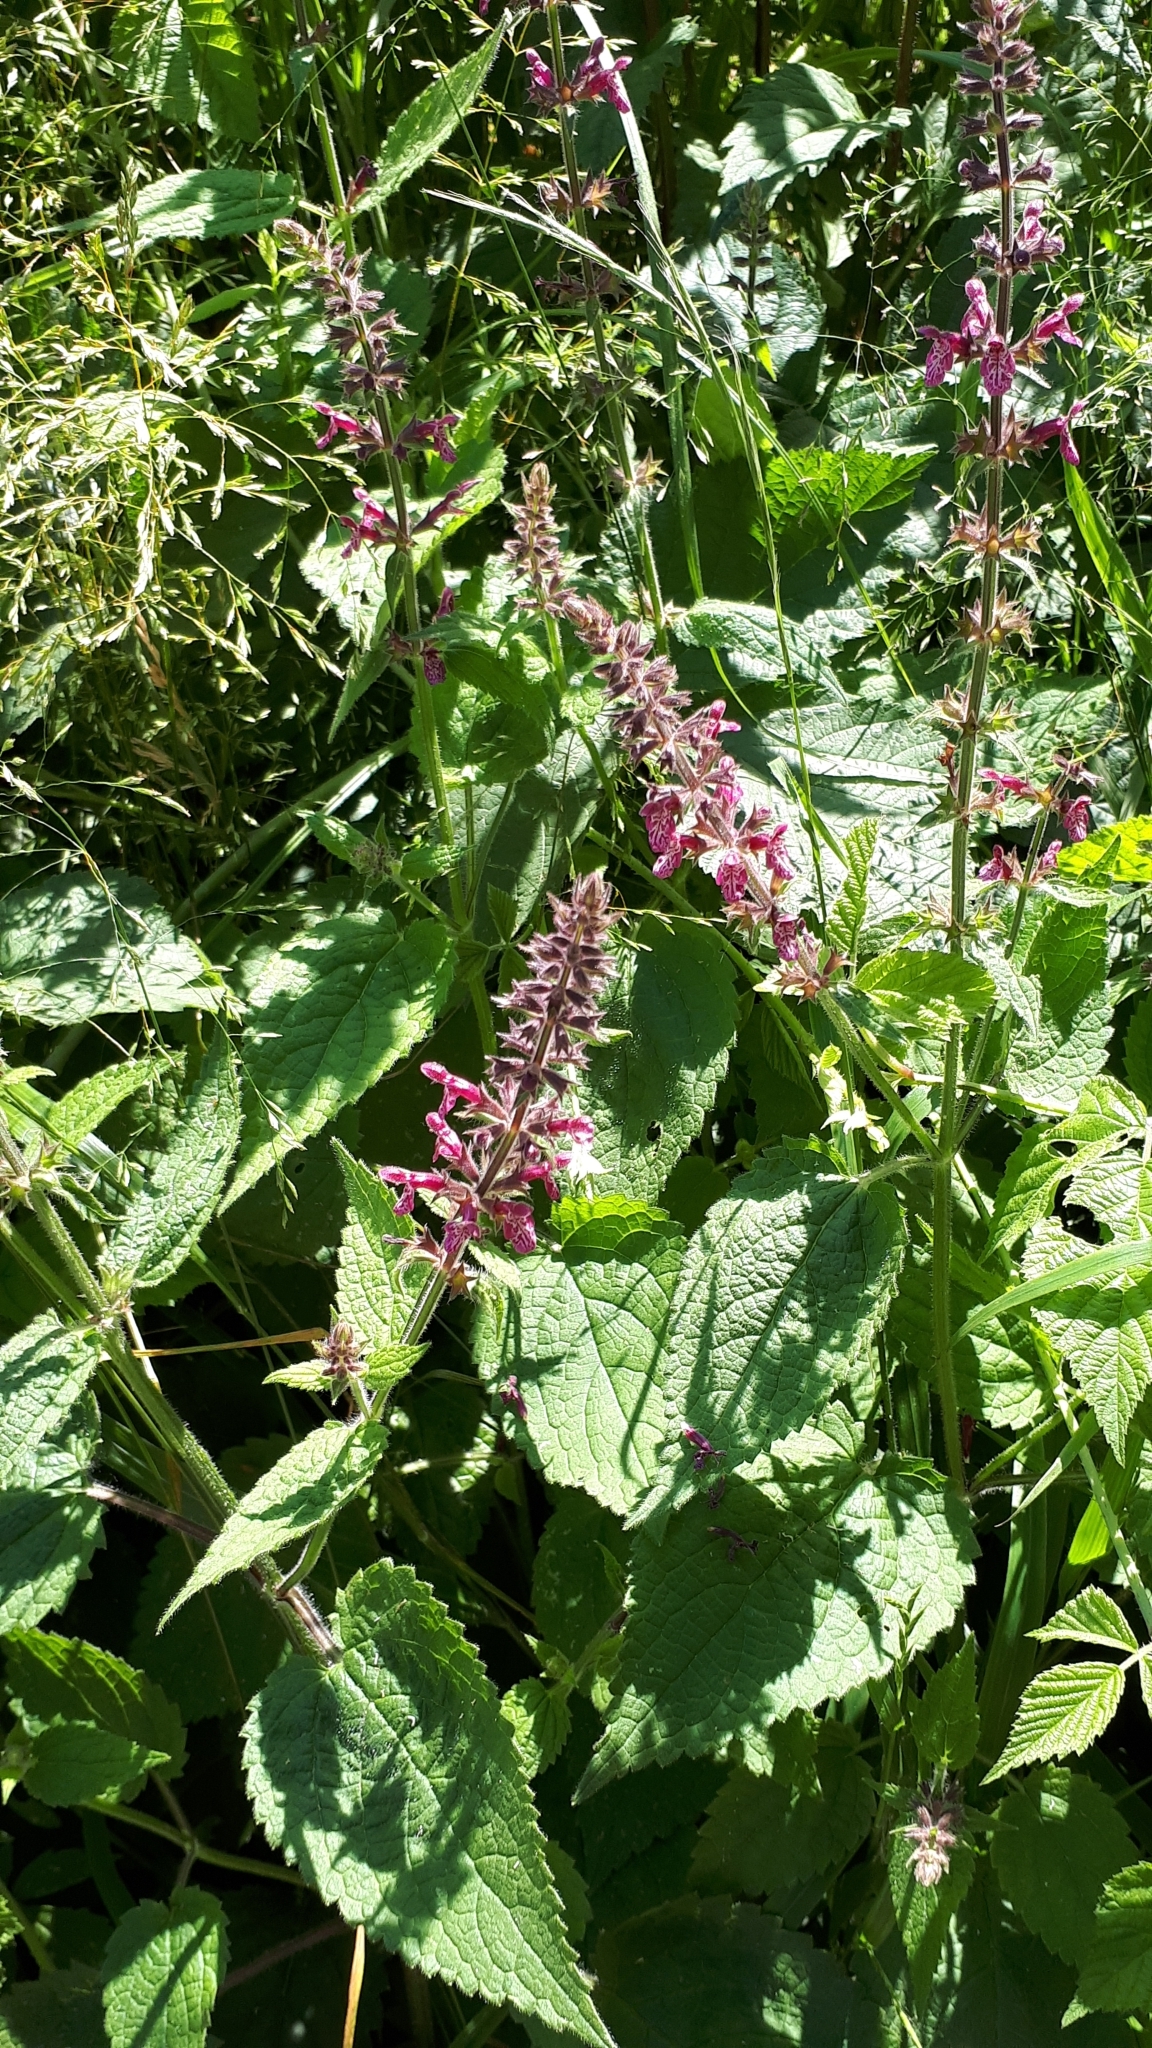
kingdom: Plantae
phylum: Tracheophyta
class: Magnoliopsida
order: Lamiales
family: Lamiaceae
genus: Stachys
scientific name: Stachys sylvatica
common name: Hedge woundwort
